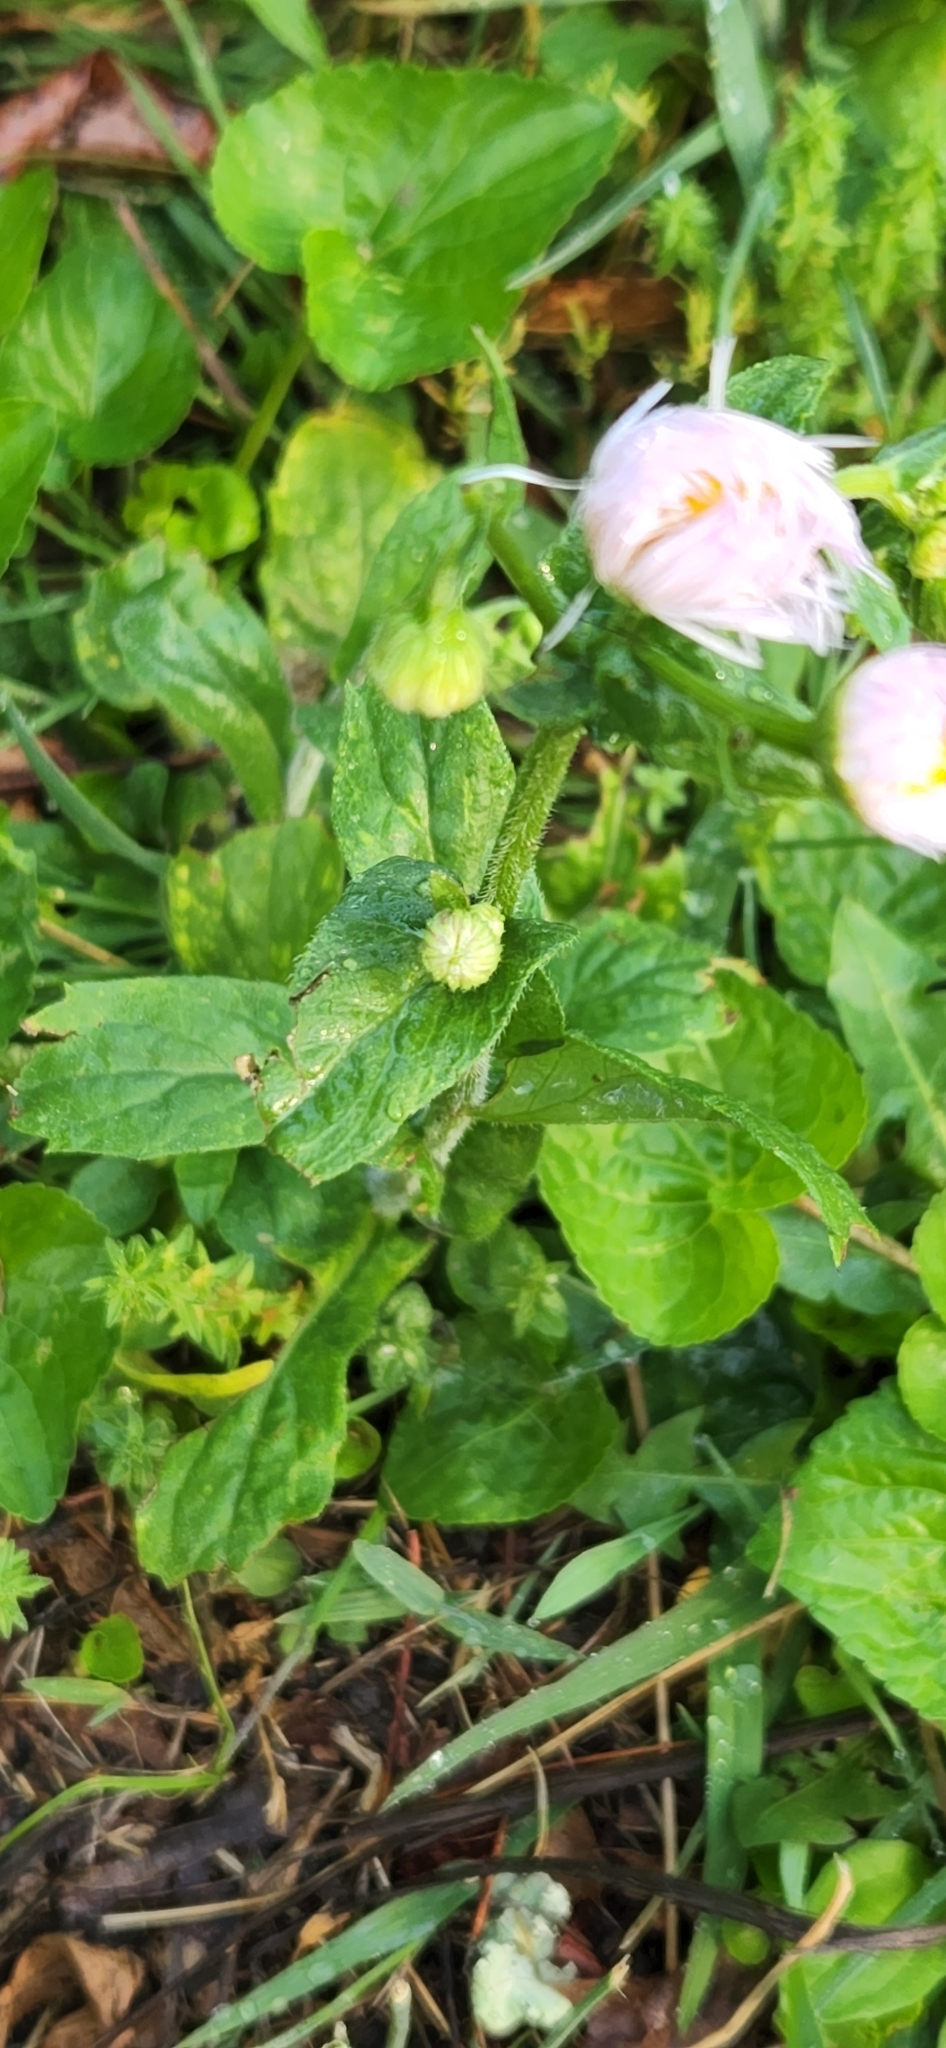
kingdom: Plantae
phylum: Tracheophyta
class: Magnoliopsida
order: Asterales
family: Asteraceae
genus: Erigeron
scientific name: Erigeron philadelphicus
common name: Robin's-plantain
